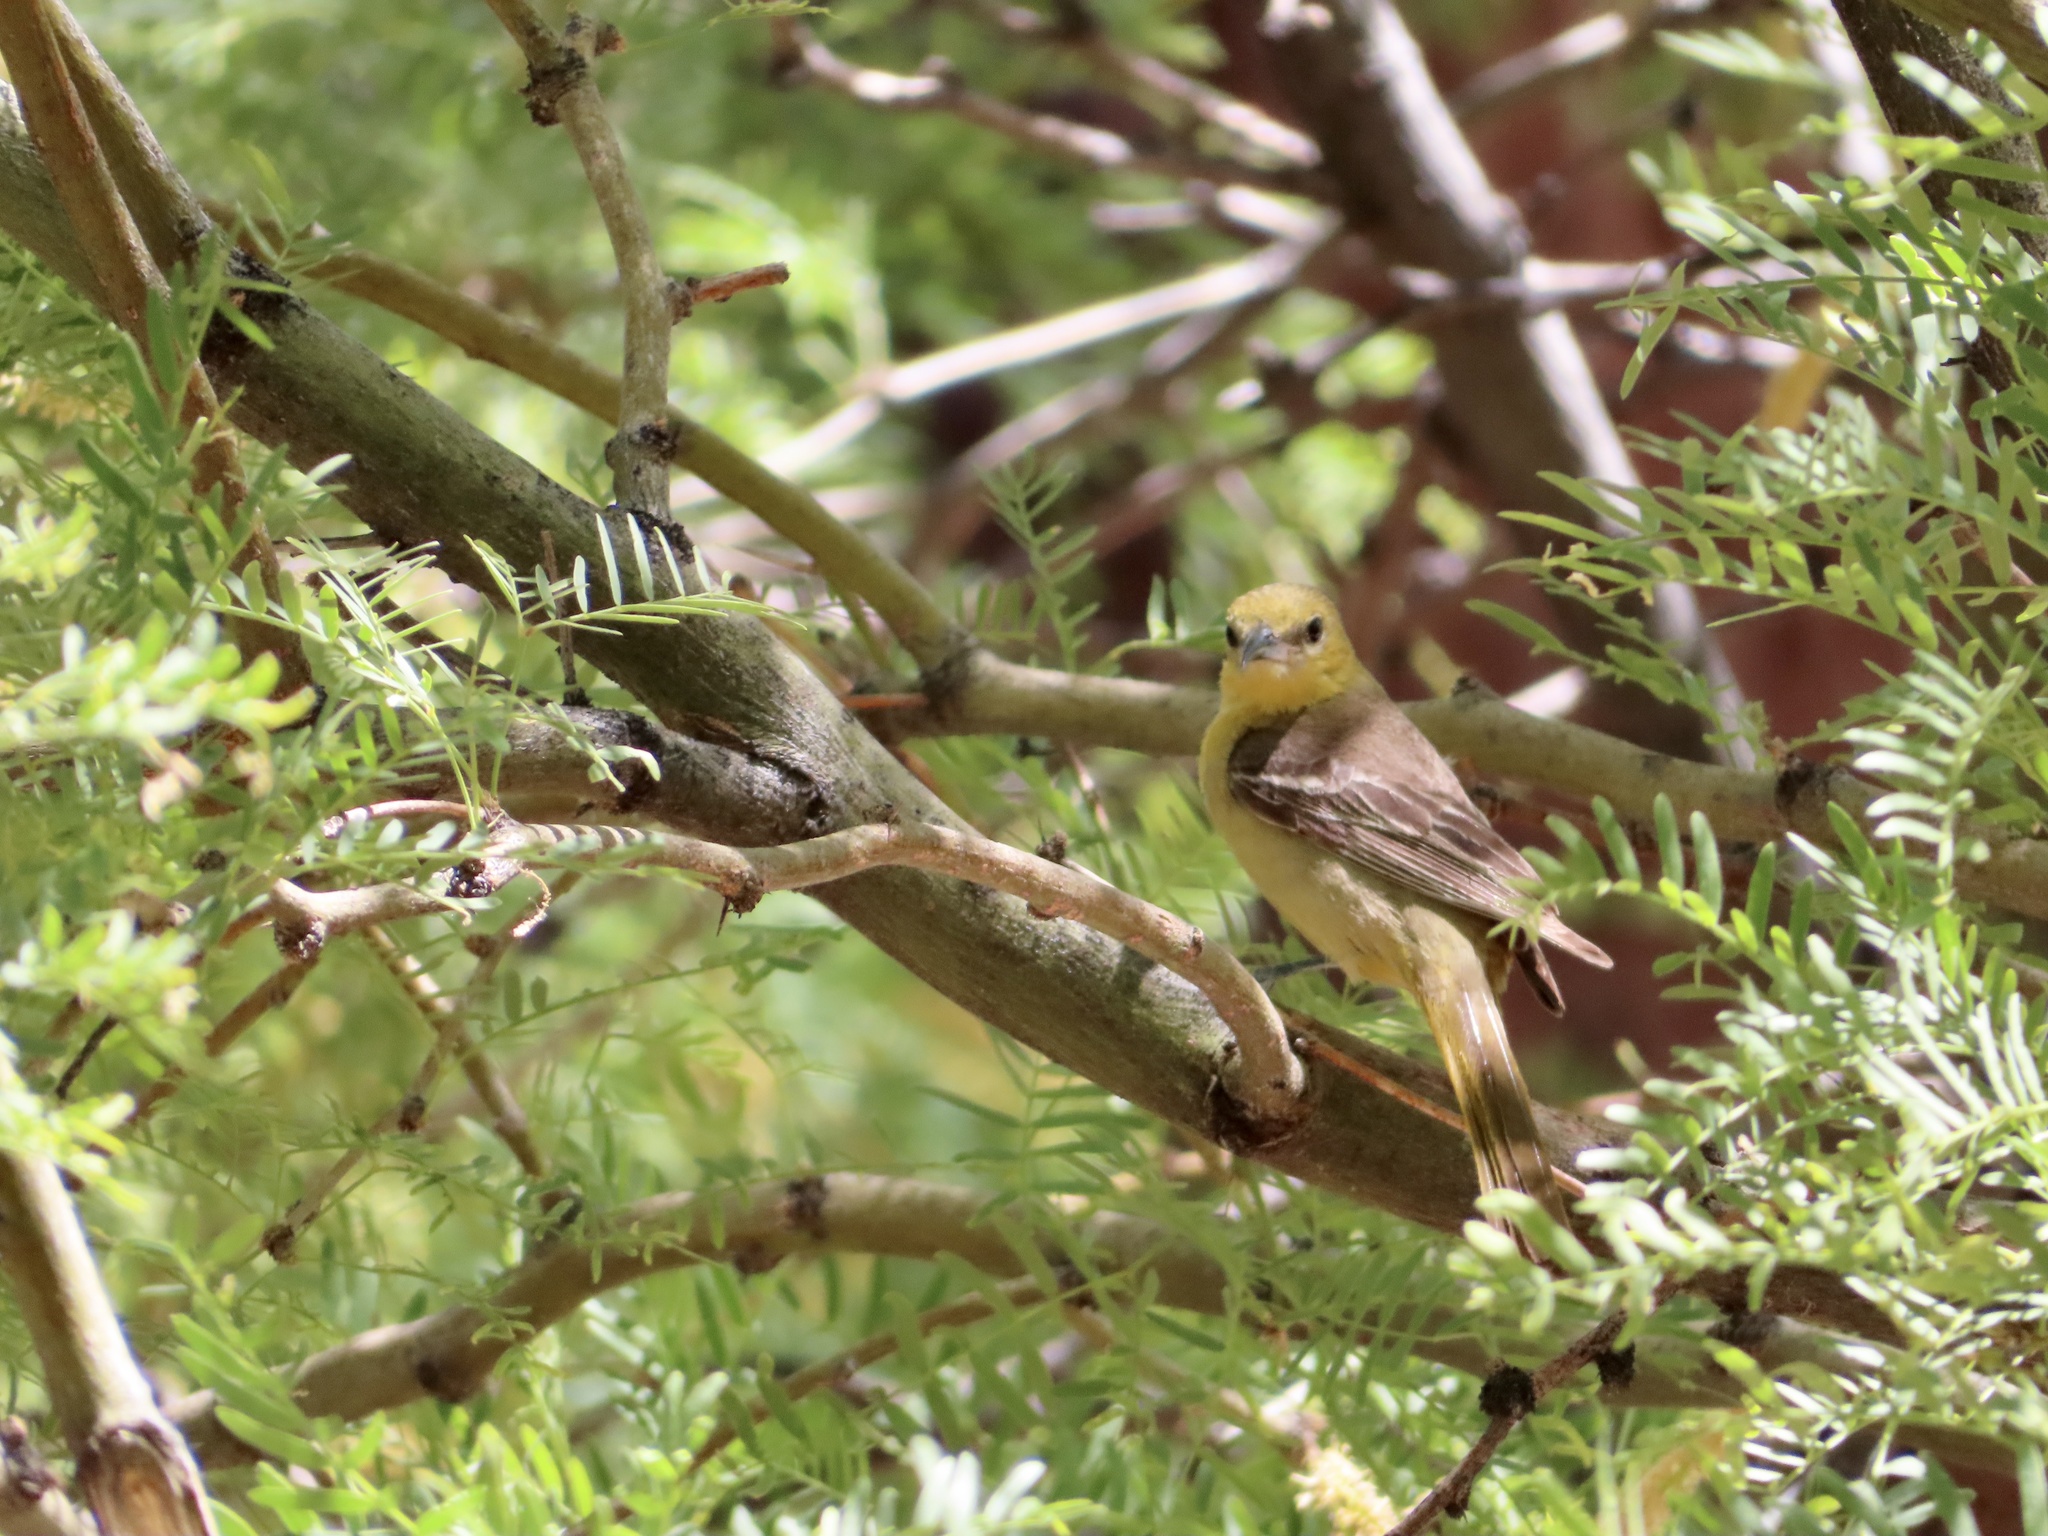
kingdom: Animalia
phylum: Chordata
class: Aves
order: Passeriformes
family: Icteridae
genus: Icterus
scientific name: Icterus cucullatus
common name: Hooded oriole
